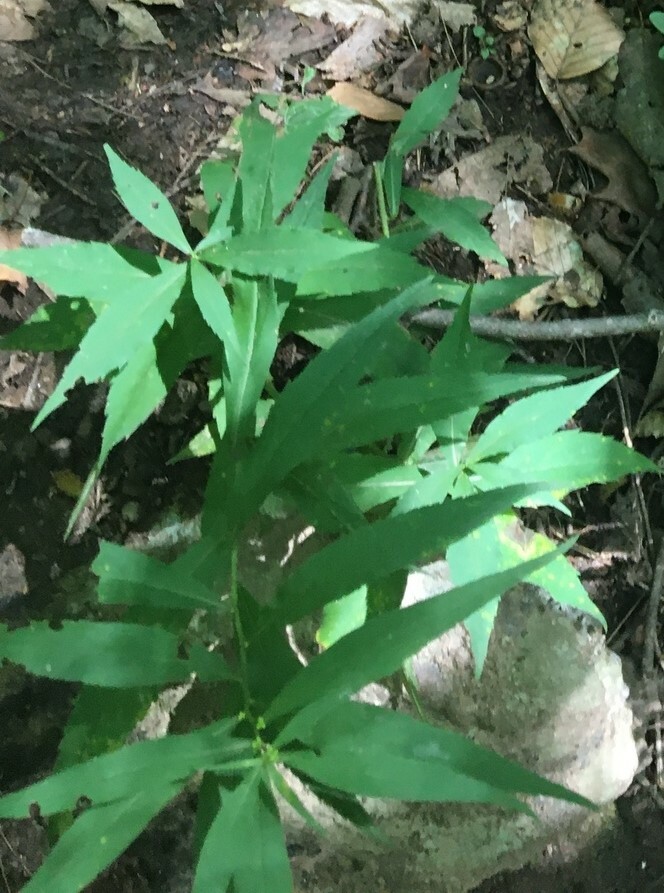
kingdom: Plantae
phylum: Tracheophyta
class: Magnoliopsida
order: Asterales
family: Asteraceae
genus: Solidago
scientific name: Solidago caesia
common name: Woodland goldenrod
